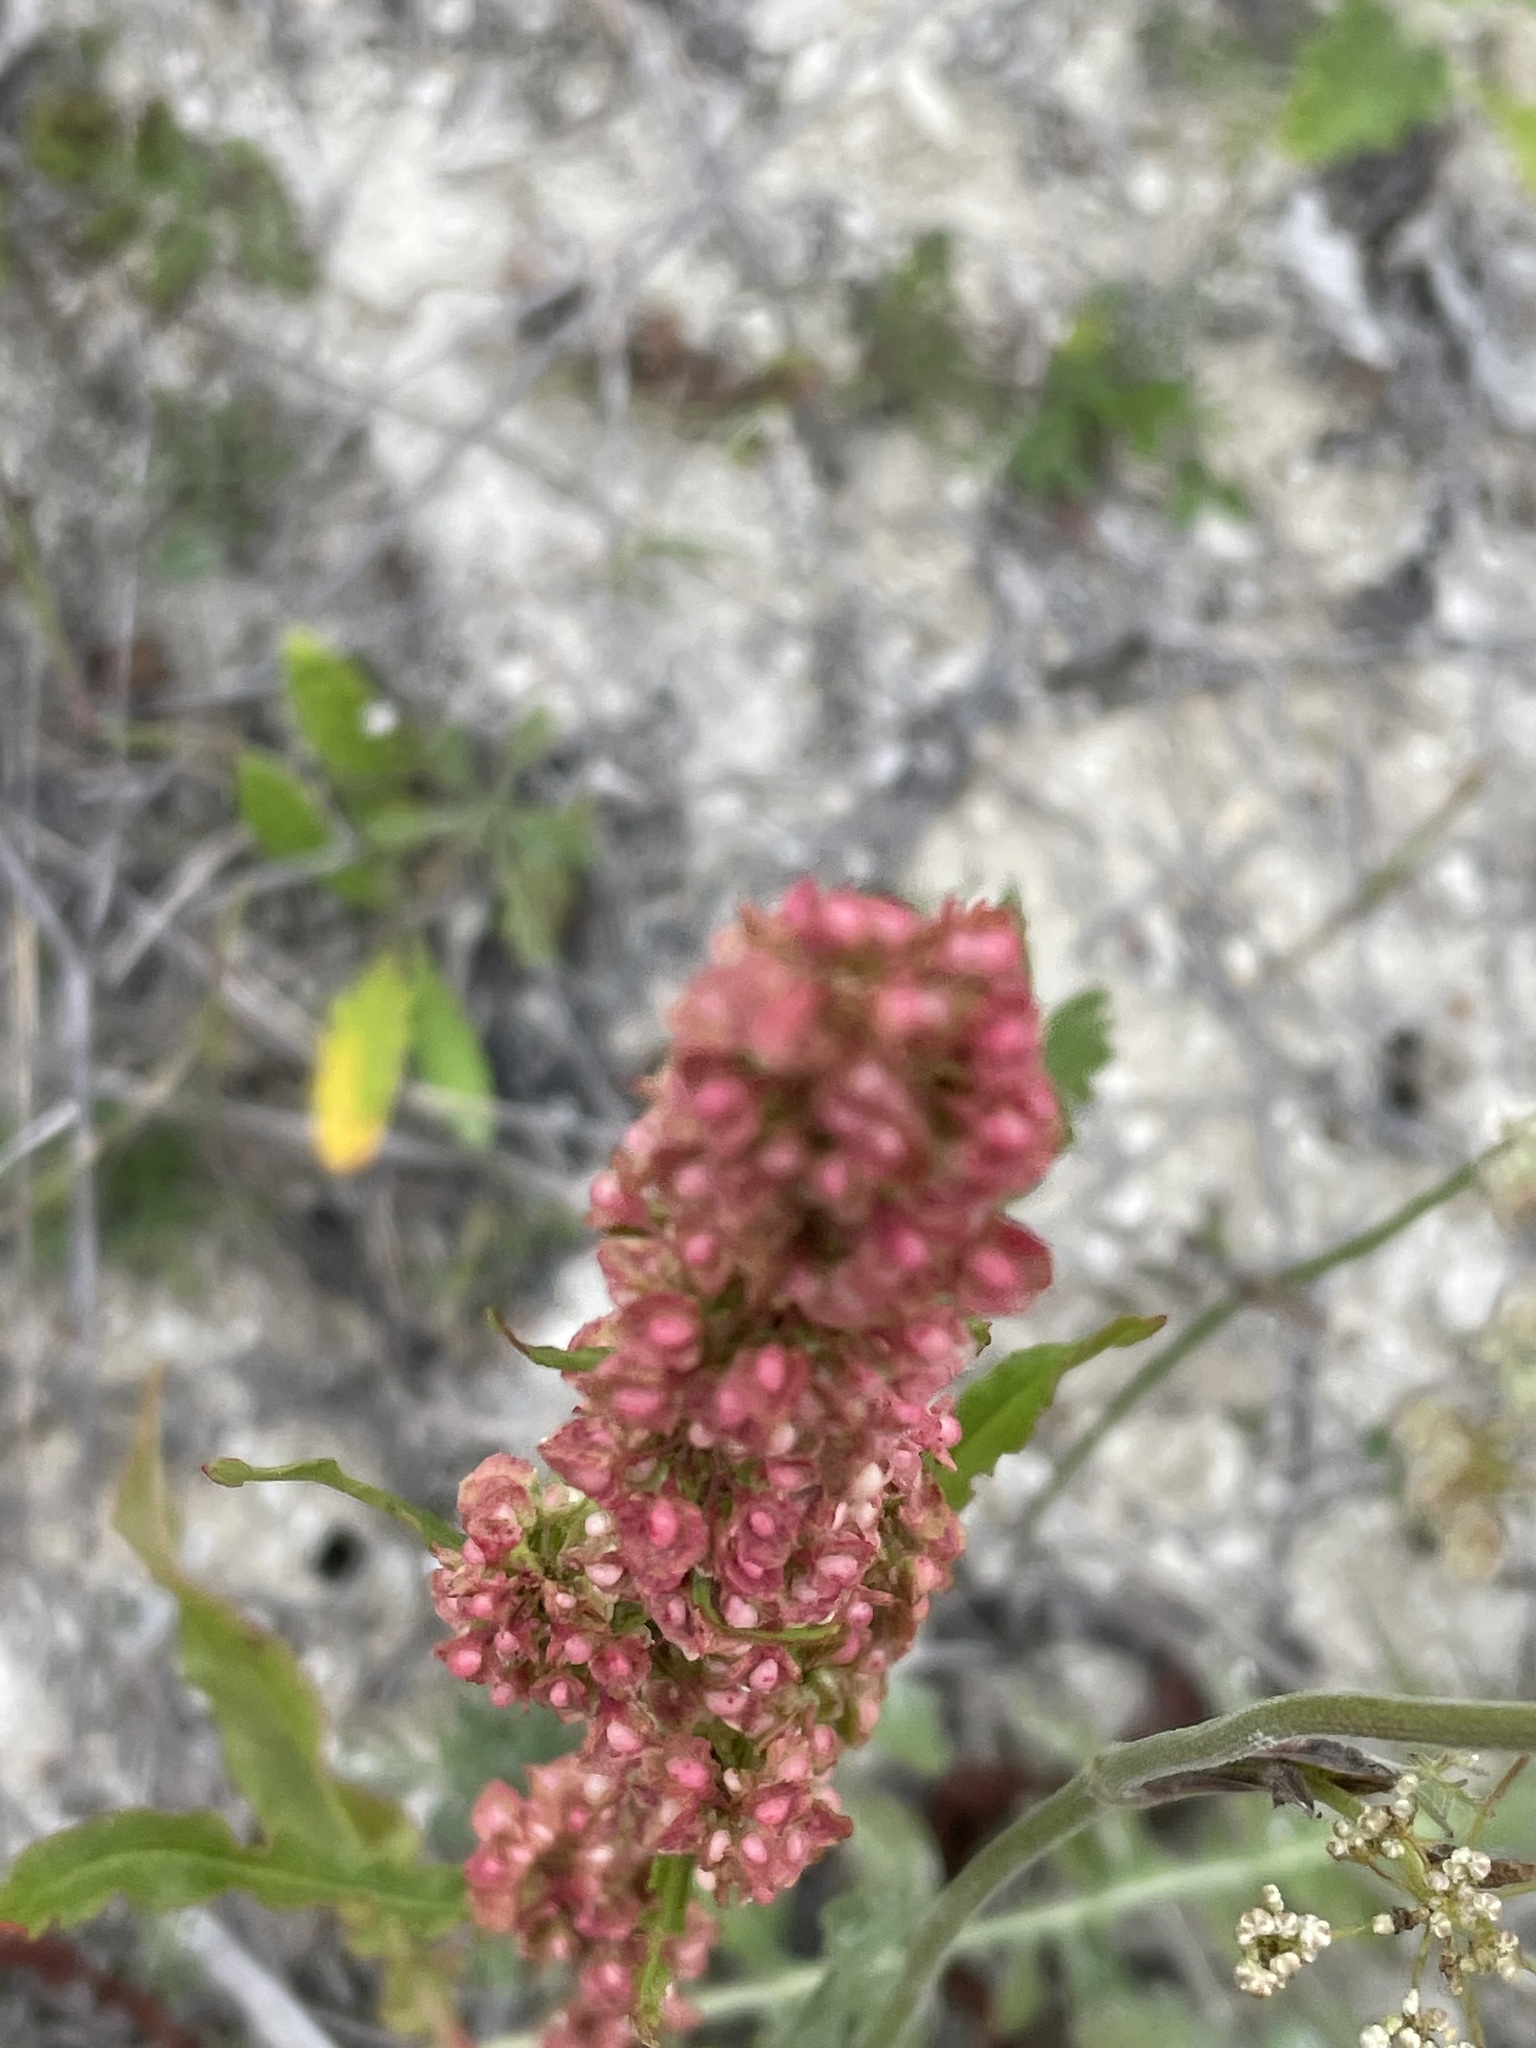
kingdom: Plantae
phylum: Tracheophyta
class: Magnoliopsida
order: Caryophyllales
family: Polygonaceae
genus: Rumex
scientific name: Rumex crispus
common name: Curled dock
